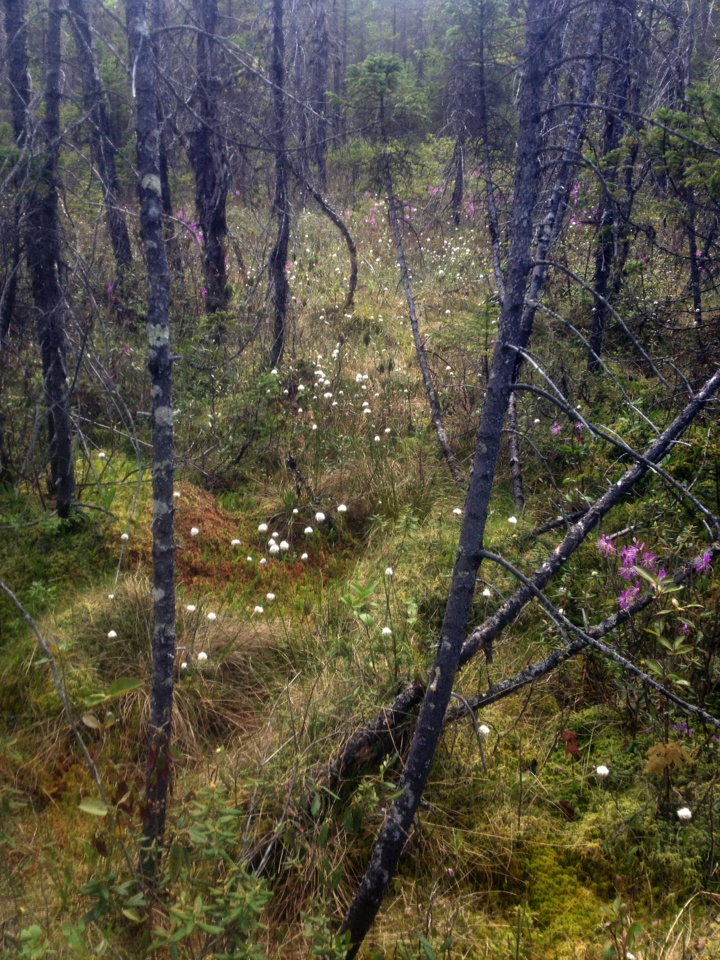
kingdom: Plantae
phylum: Tracheophyta
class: Liliopsida
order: Poales
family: Cyperaceae
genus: Eriophorum
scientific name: Eriophorum vaginatum
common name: Hare's-tail cottongrass
